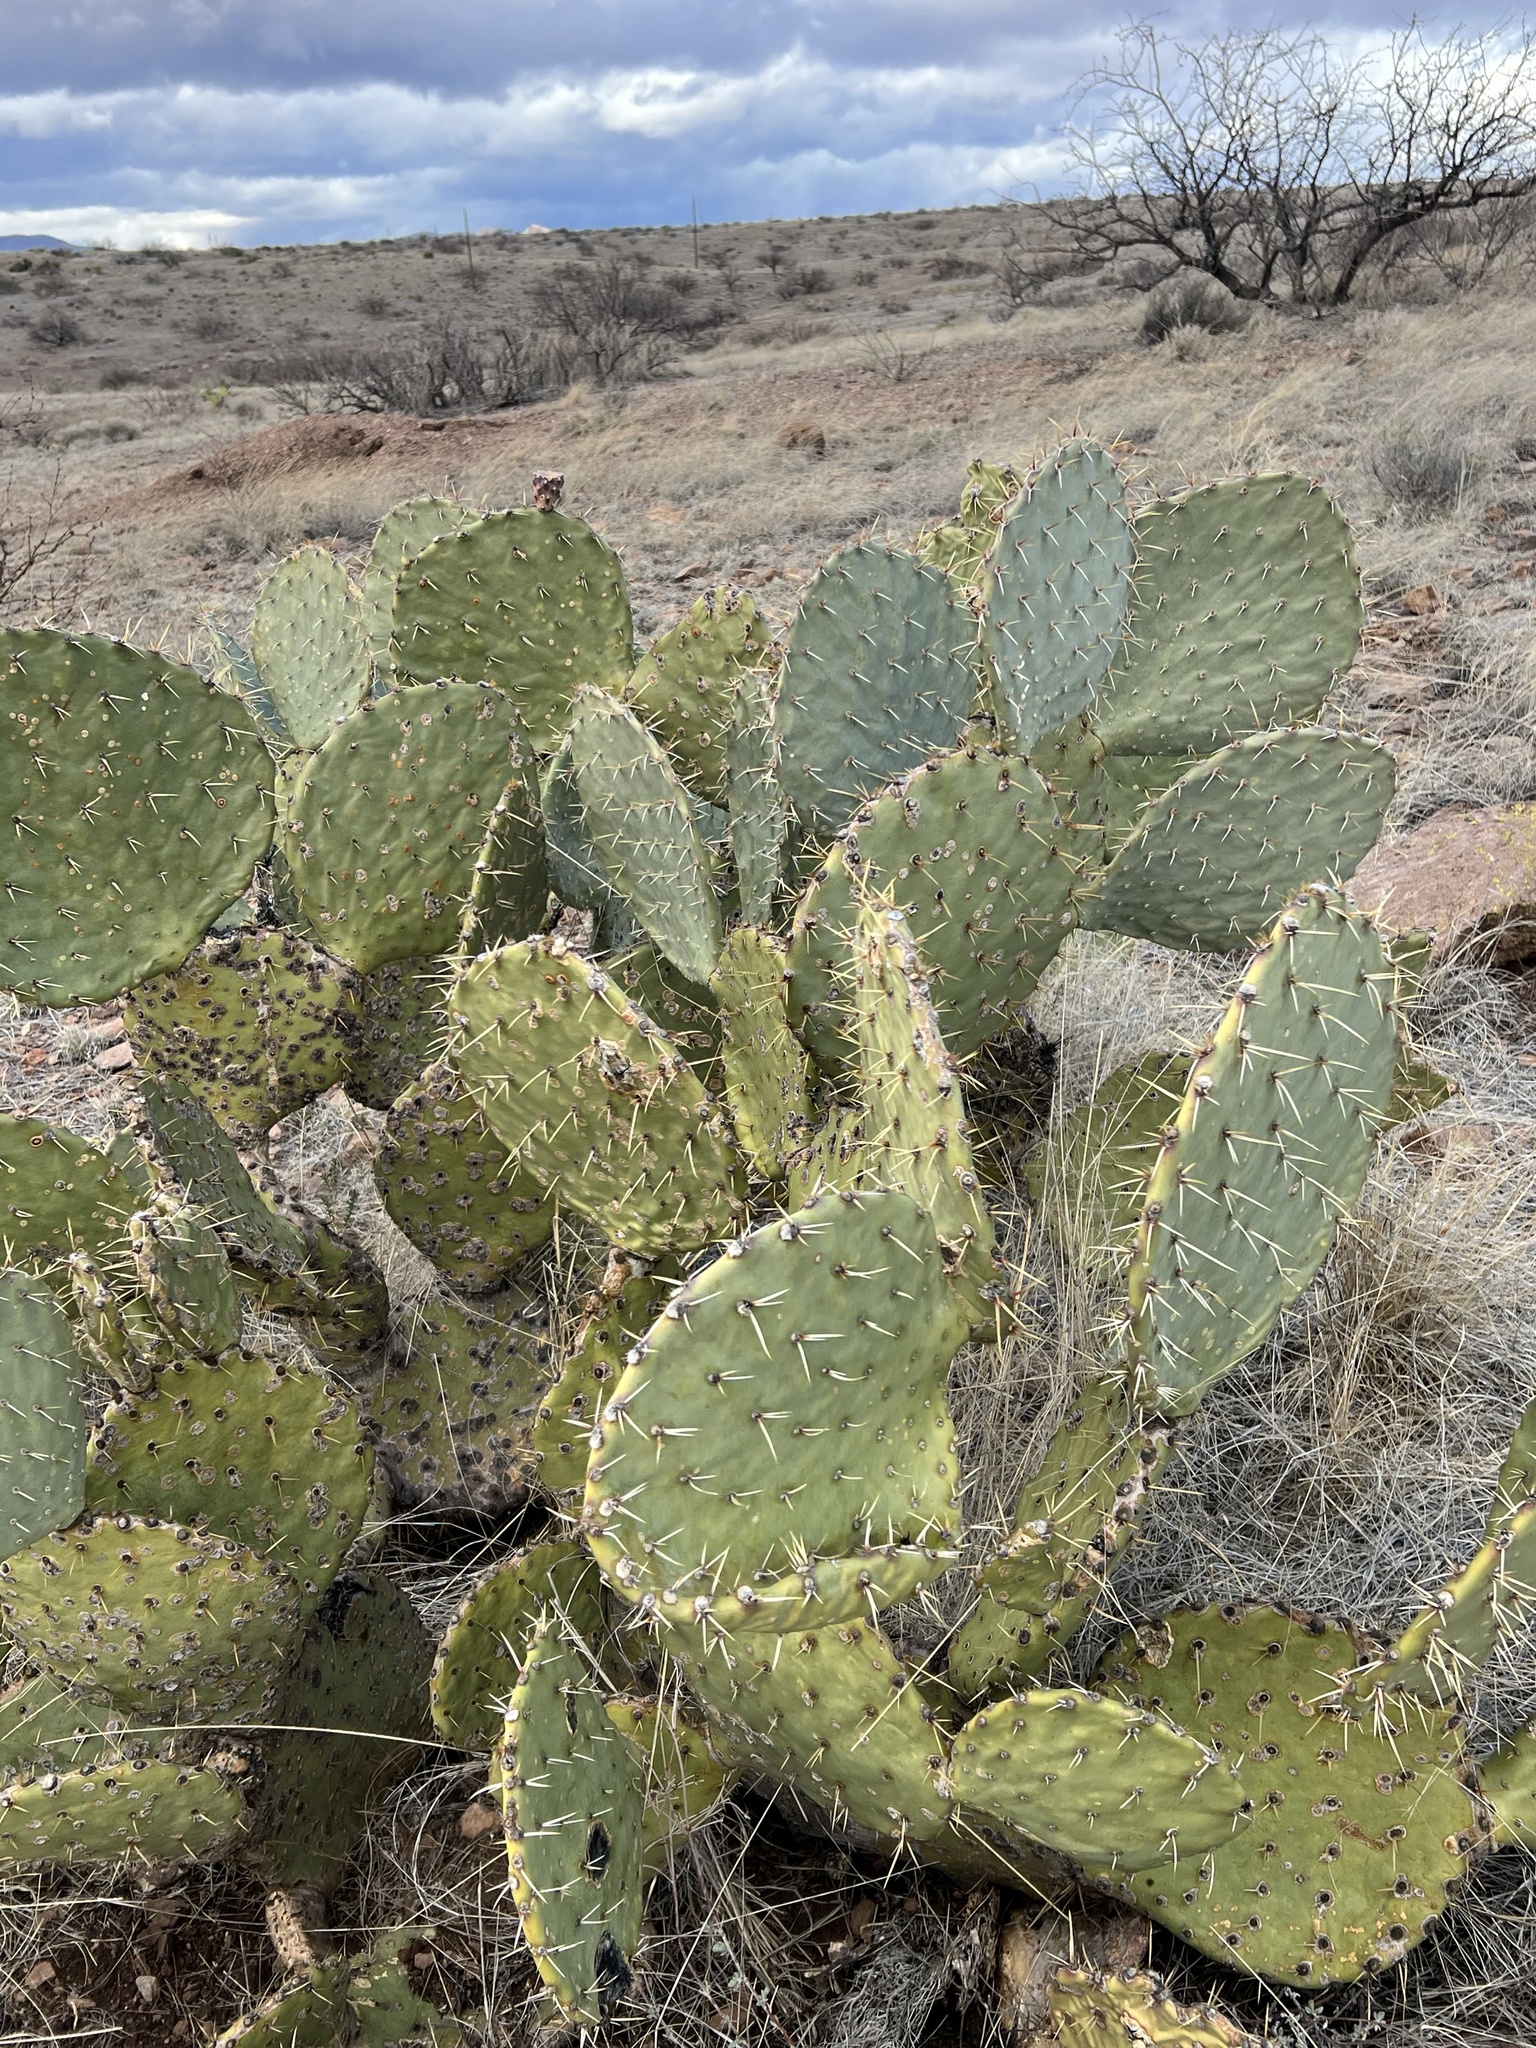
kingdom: Plantae
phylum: Tracheophyta
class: Magnoliopsida
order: Caryophyllales
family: Cactaceae
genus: Opuntia
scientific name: Opuntia engelmannii
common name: Cactus-apple
